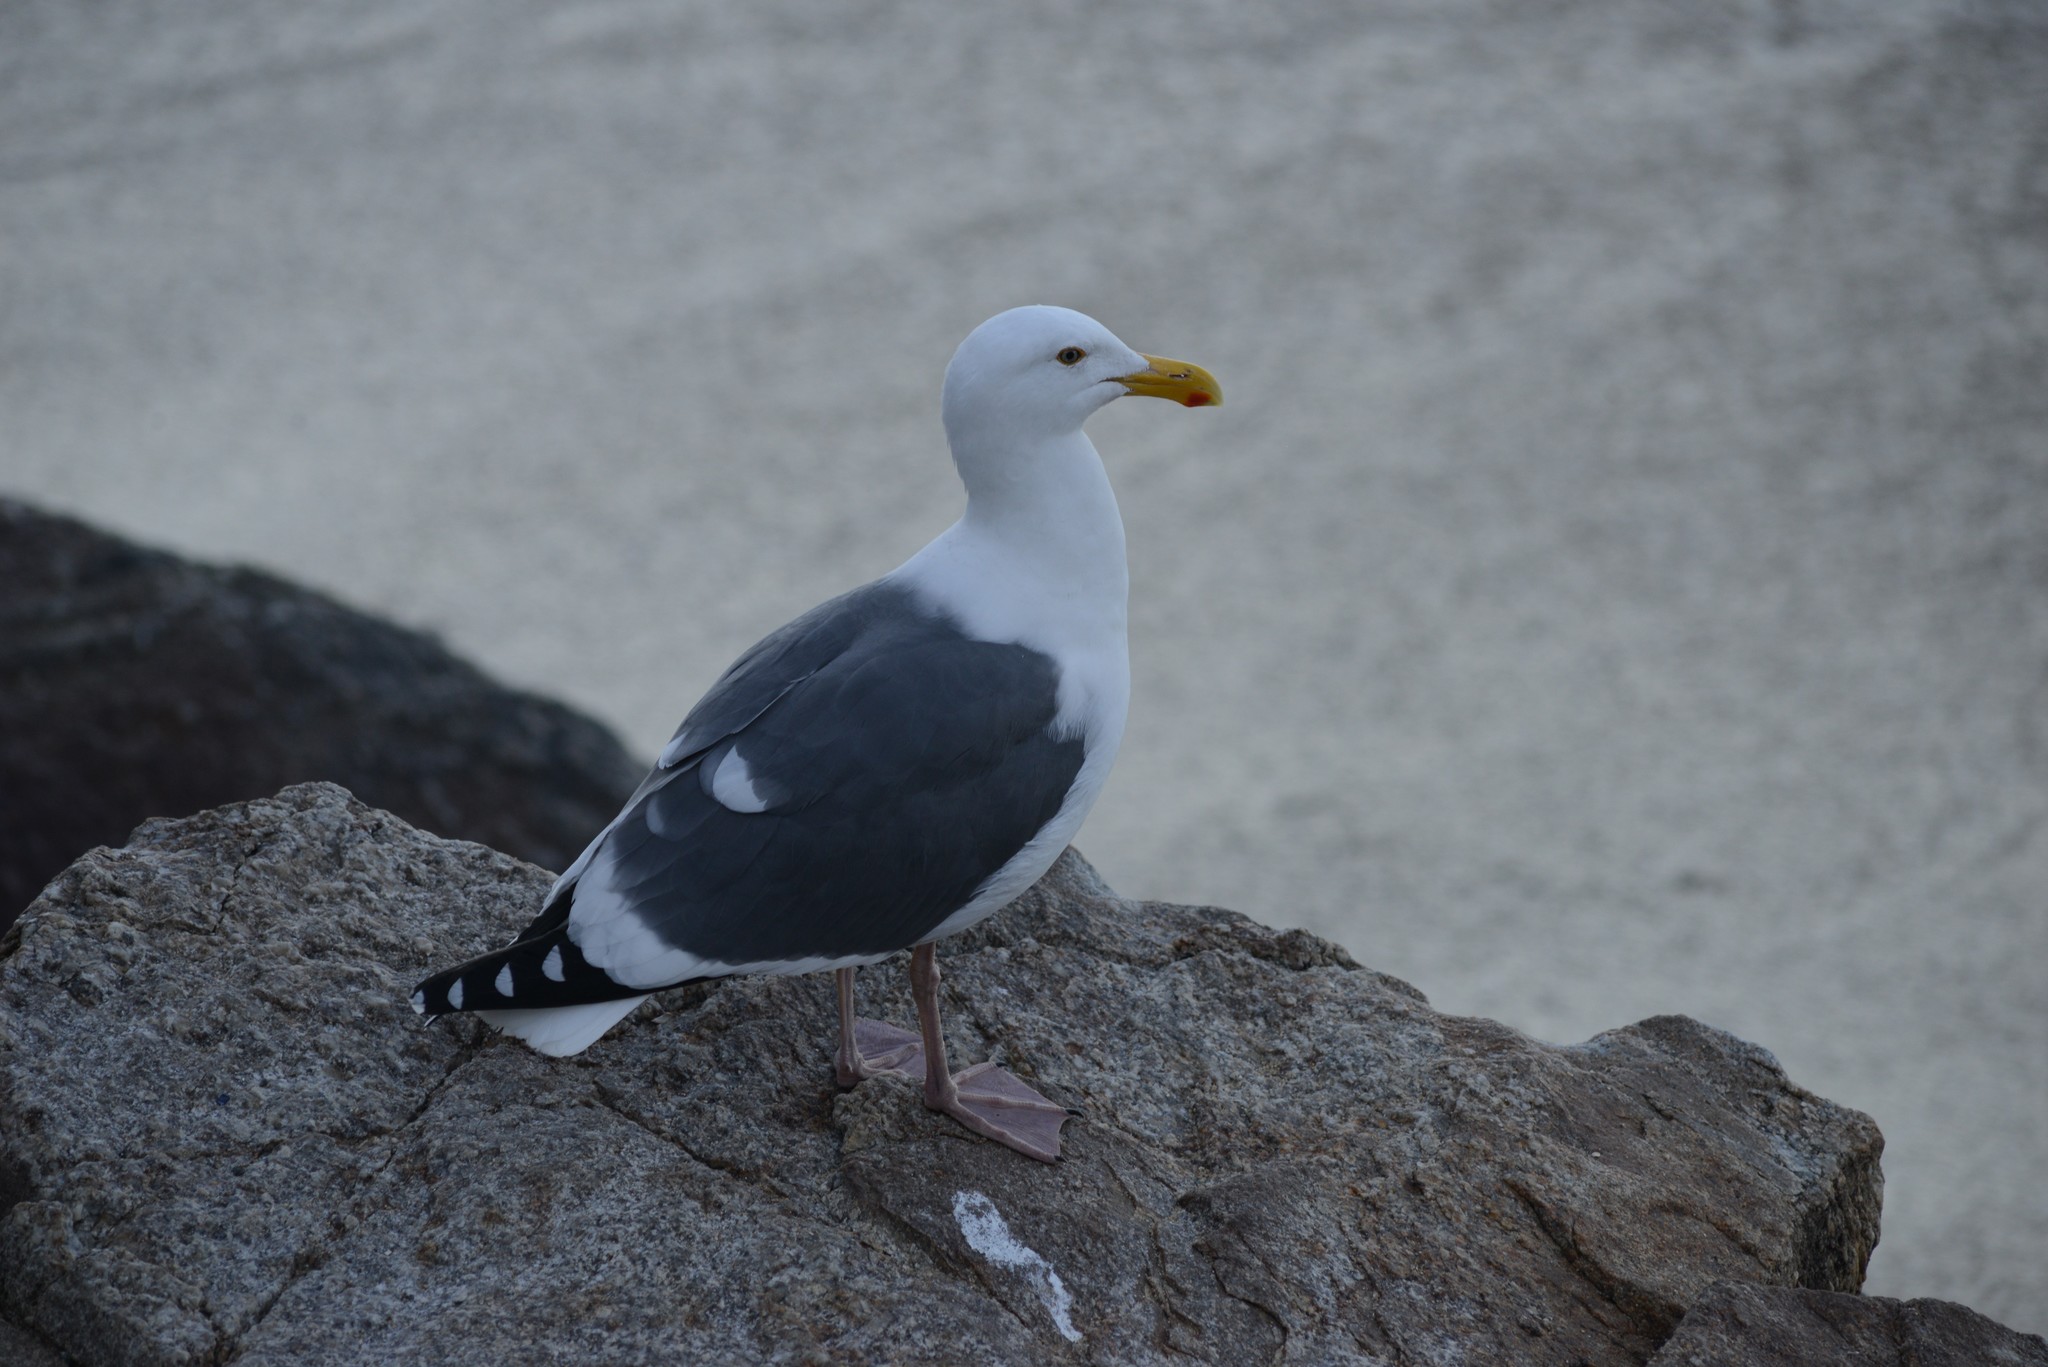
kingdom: Animalia
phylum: Chordata
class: Aves
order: Charadriiformes
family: Laridae
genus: Larus
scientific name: Larus occidentalis
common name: Western gull
